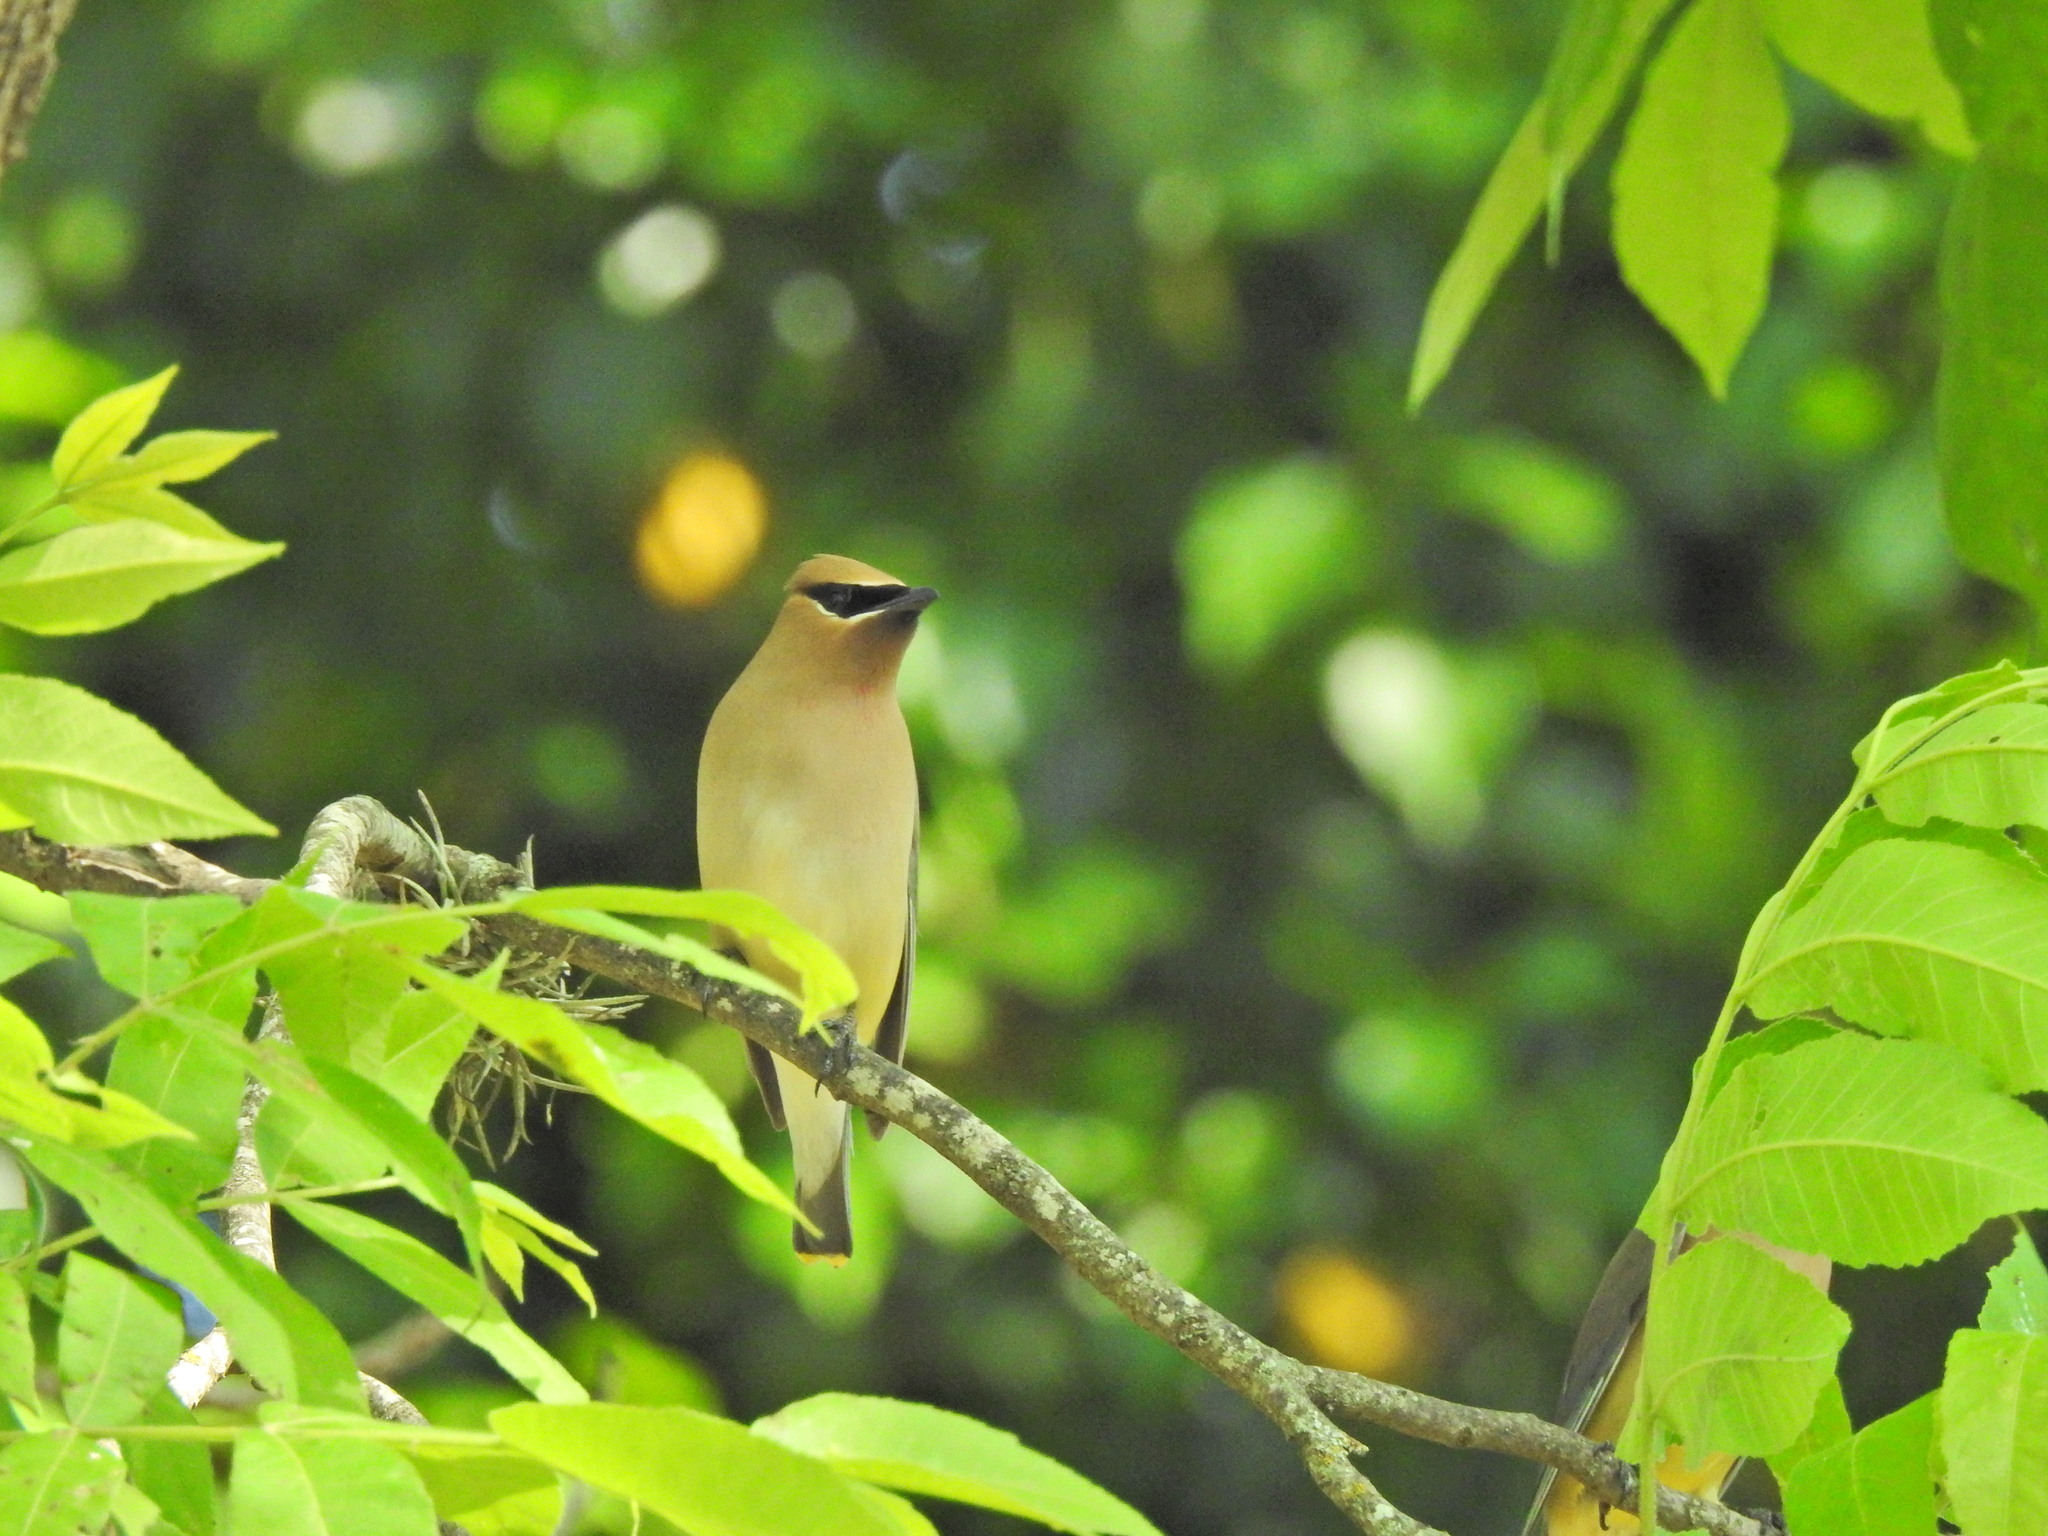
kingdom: Animalia
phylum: Chordata
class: Aves
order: Passeriformes
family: Bombycillidae
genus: Bombycilla
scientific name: Bombycilla cedrorum
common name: Cedar waxwing
